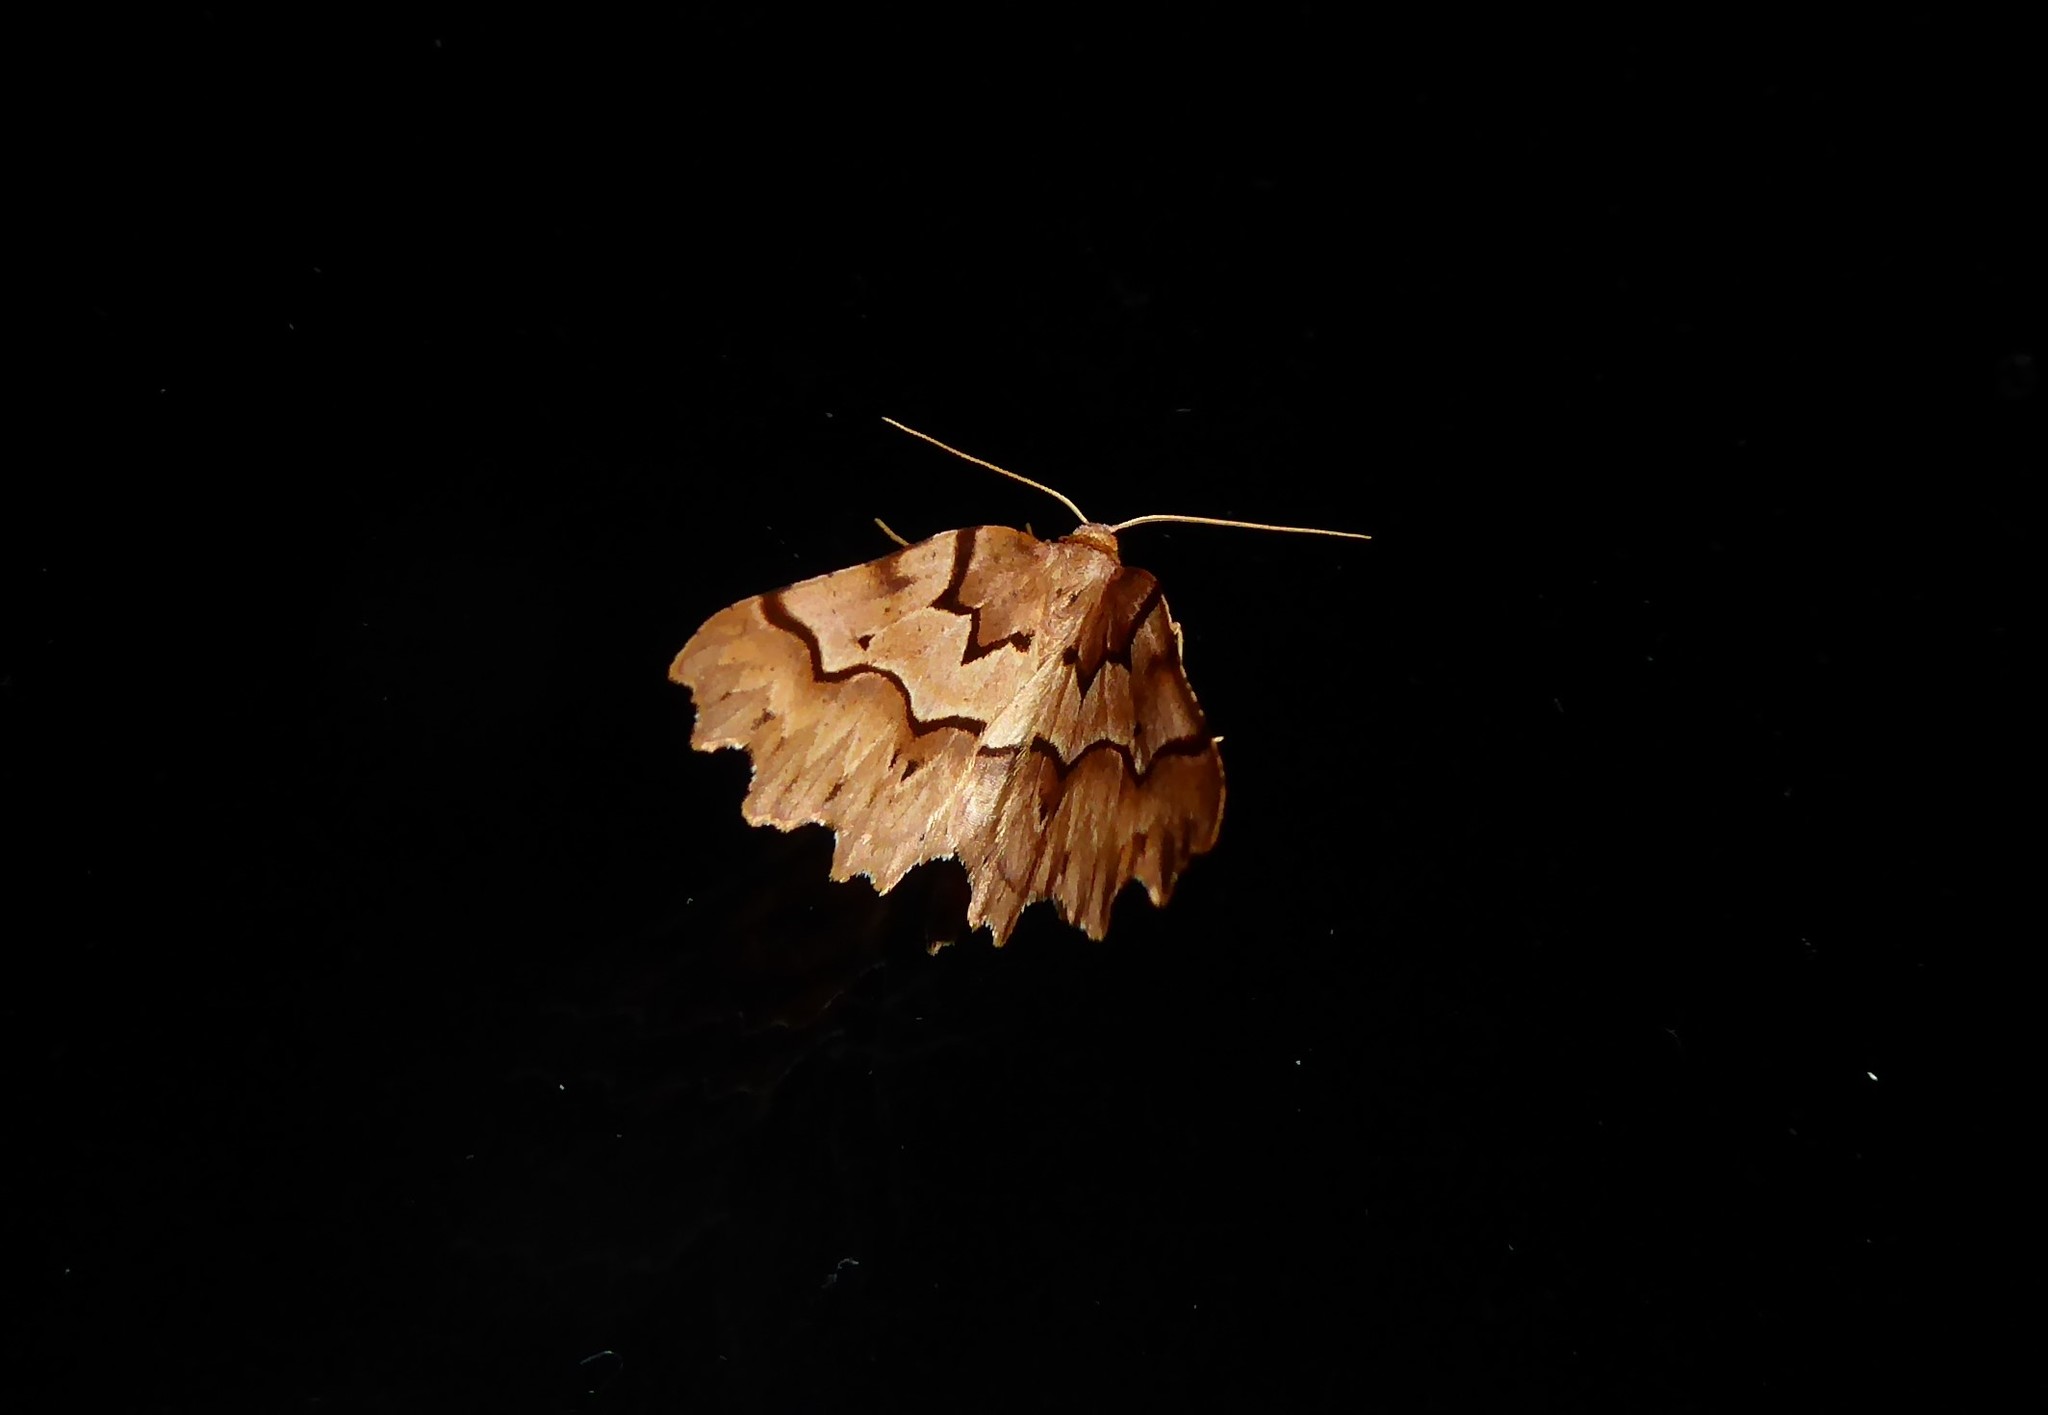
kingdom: Animalia
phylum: Arthropoda
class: Insecta
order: Lepidoptera
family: Geometridae
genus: Ischalis
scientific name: Ischalis fortinata
